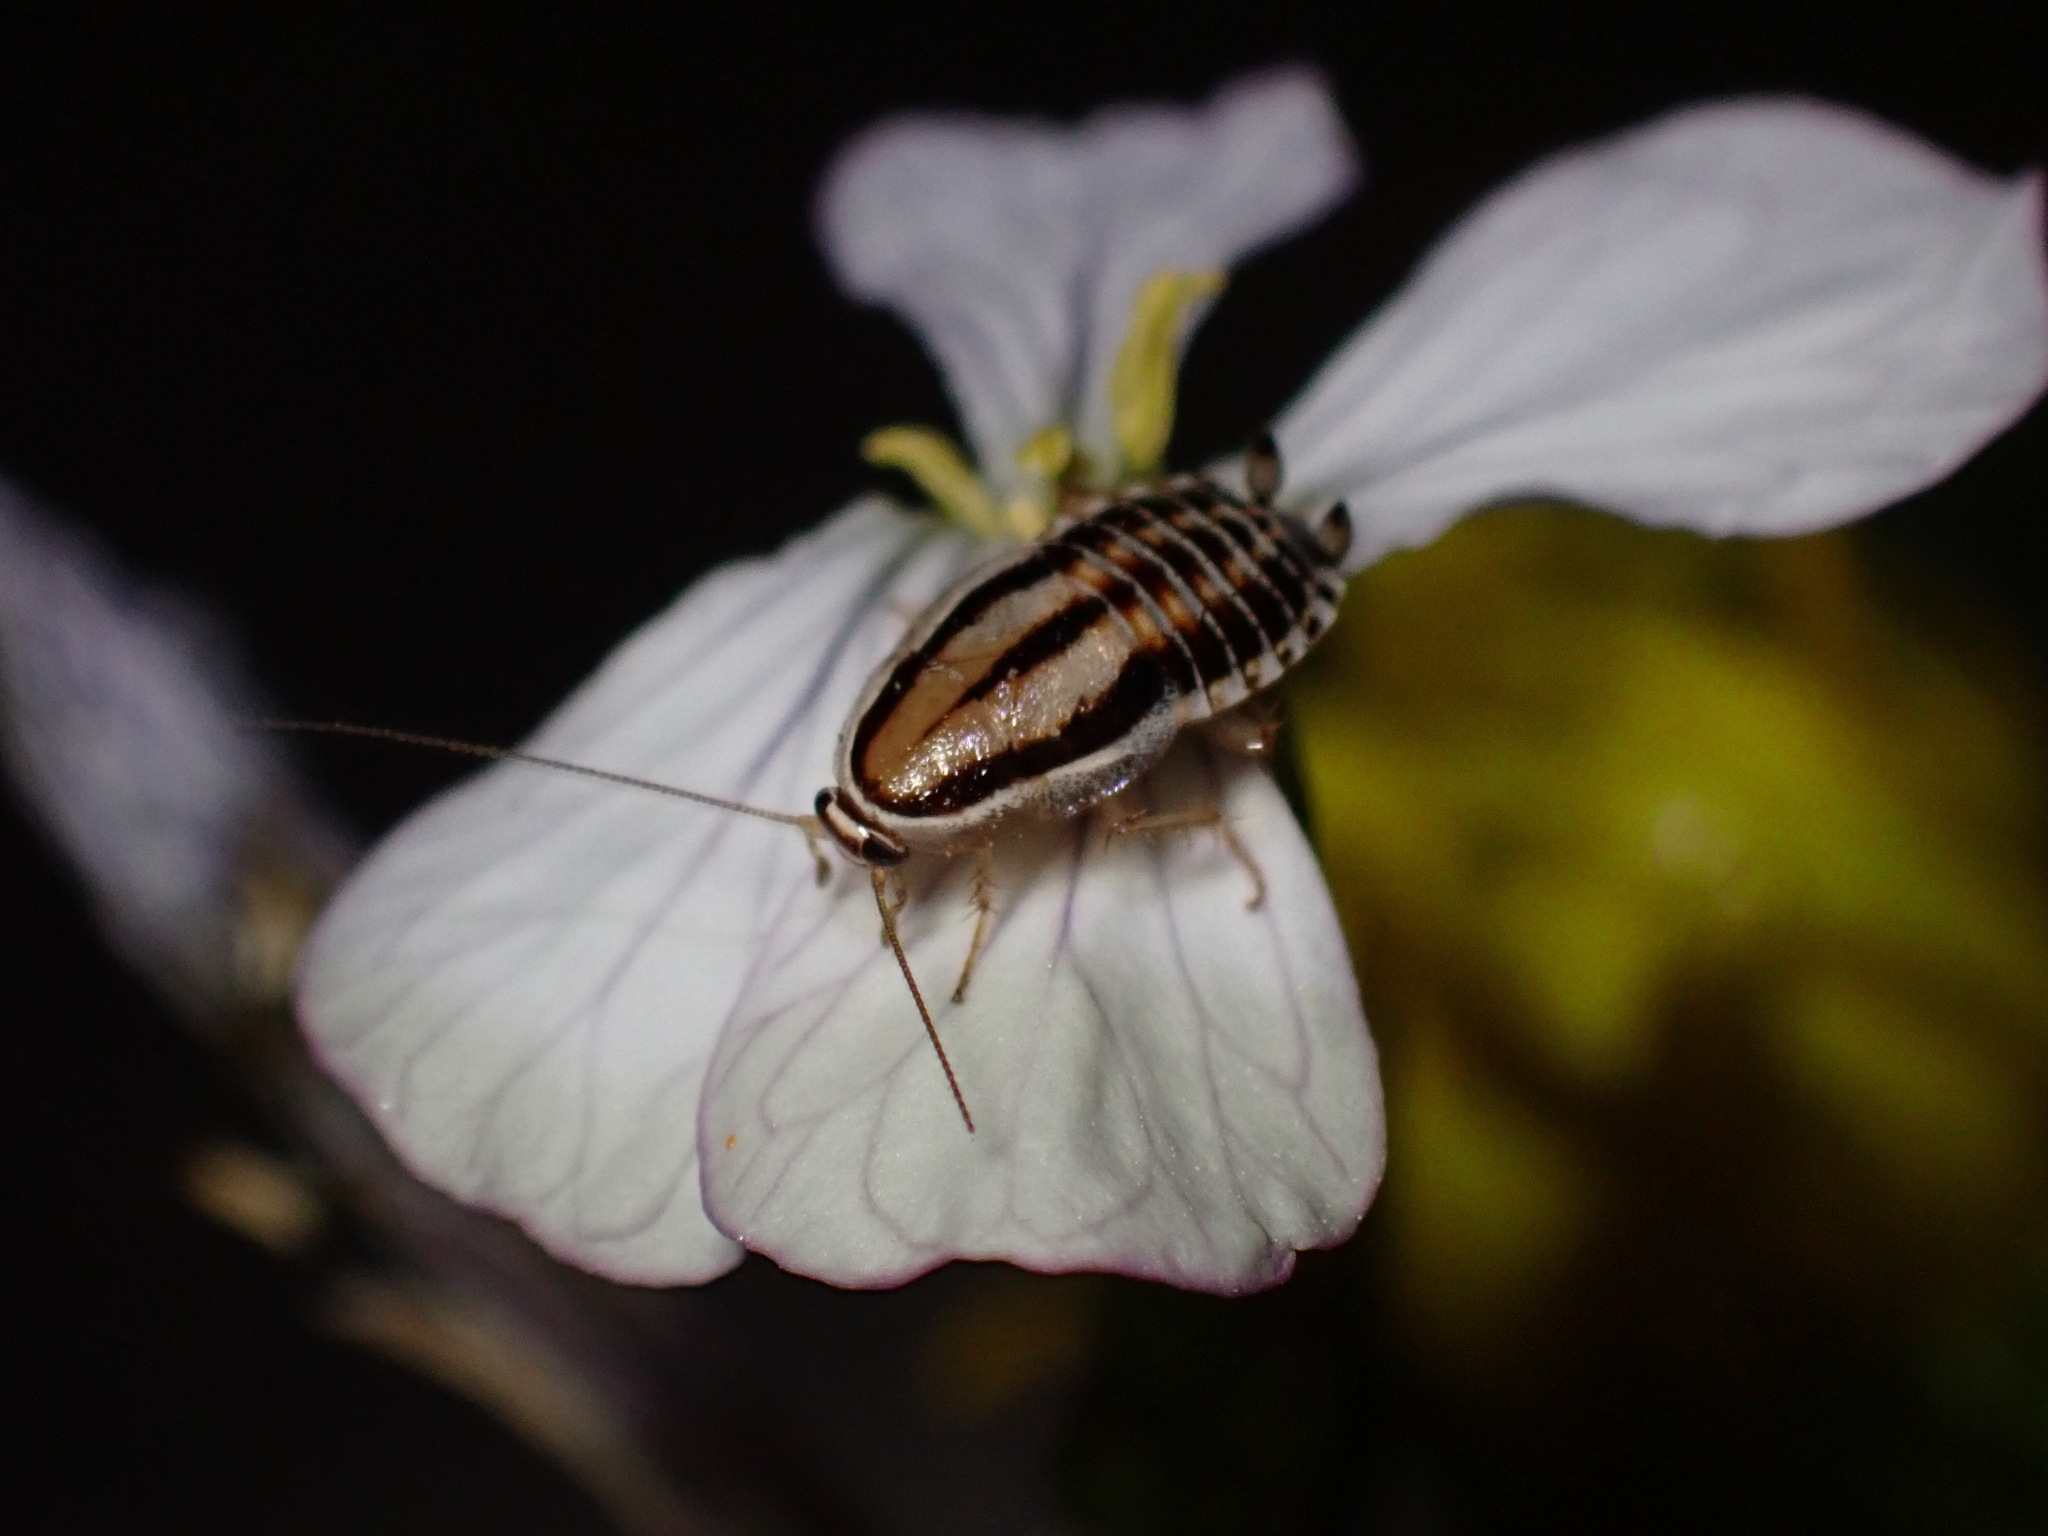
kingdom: Animalia
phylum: Arthropoda
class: Insecta
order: Blattodea
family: Ectobiidae
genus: Luridiblatta
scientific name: Luridiblatta trivittata
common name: Three-lined cockroach
